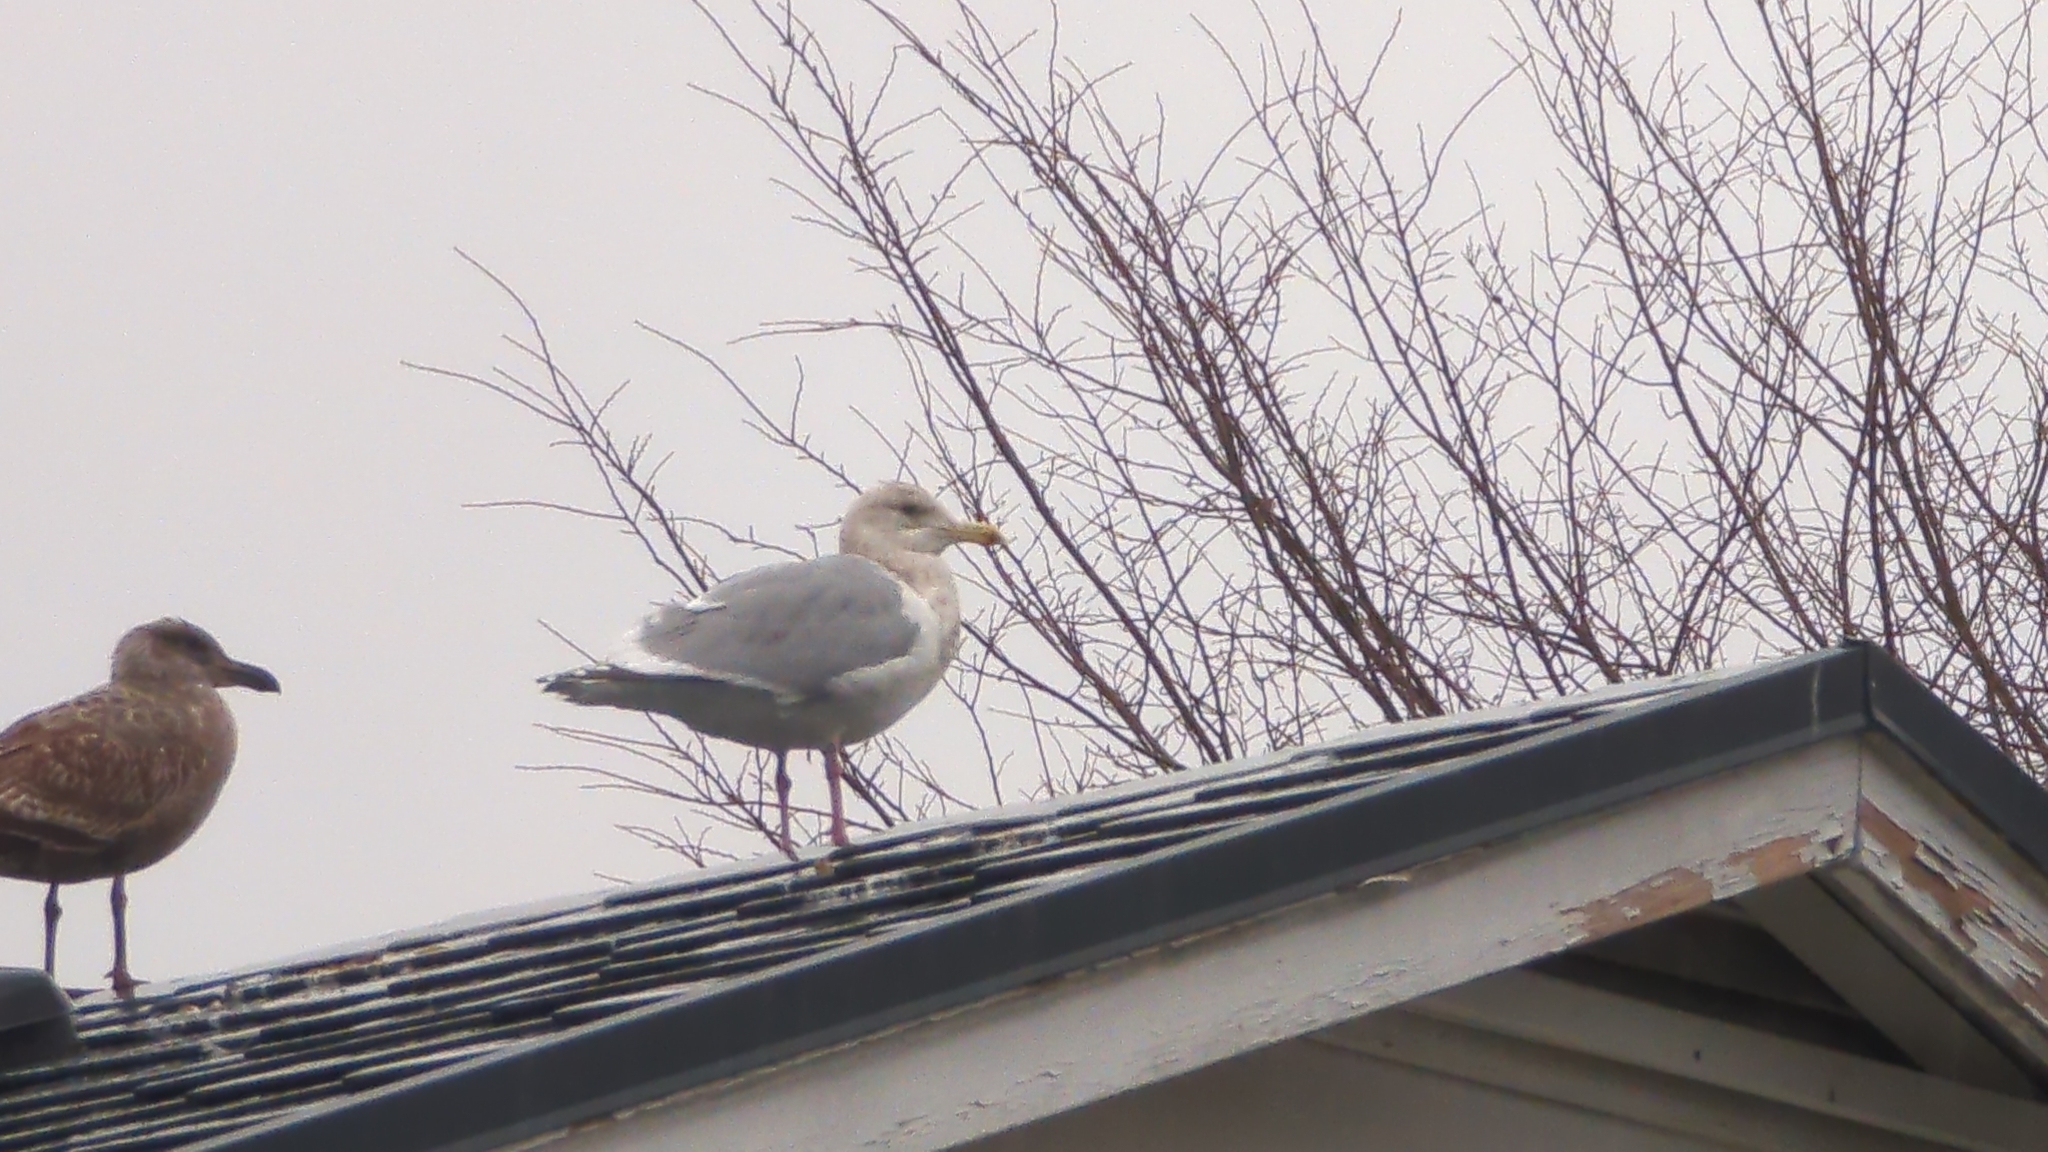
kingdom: Animalia
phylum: Chordata
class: Aves
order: Charadriiformes
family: Laridae
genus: Larus
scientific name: Larus
